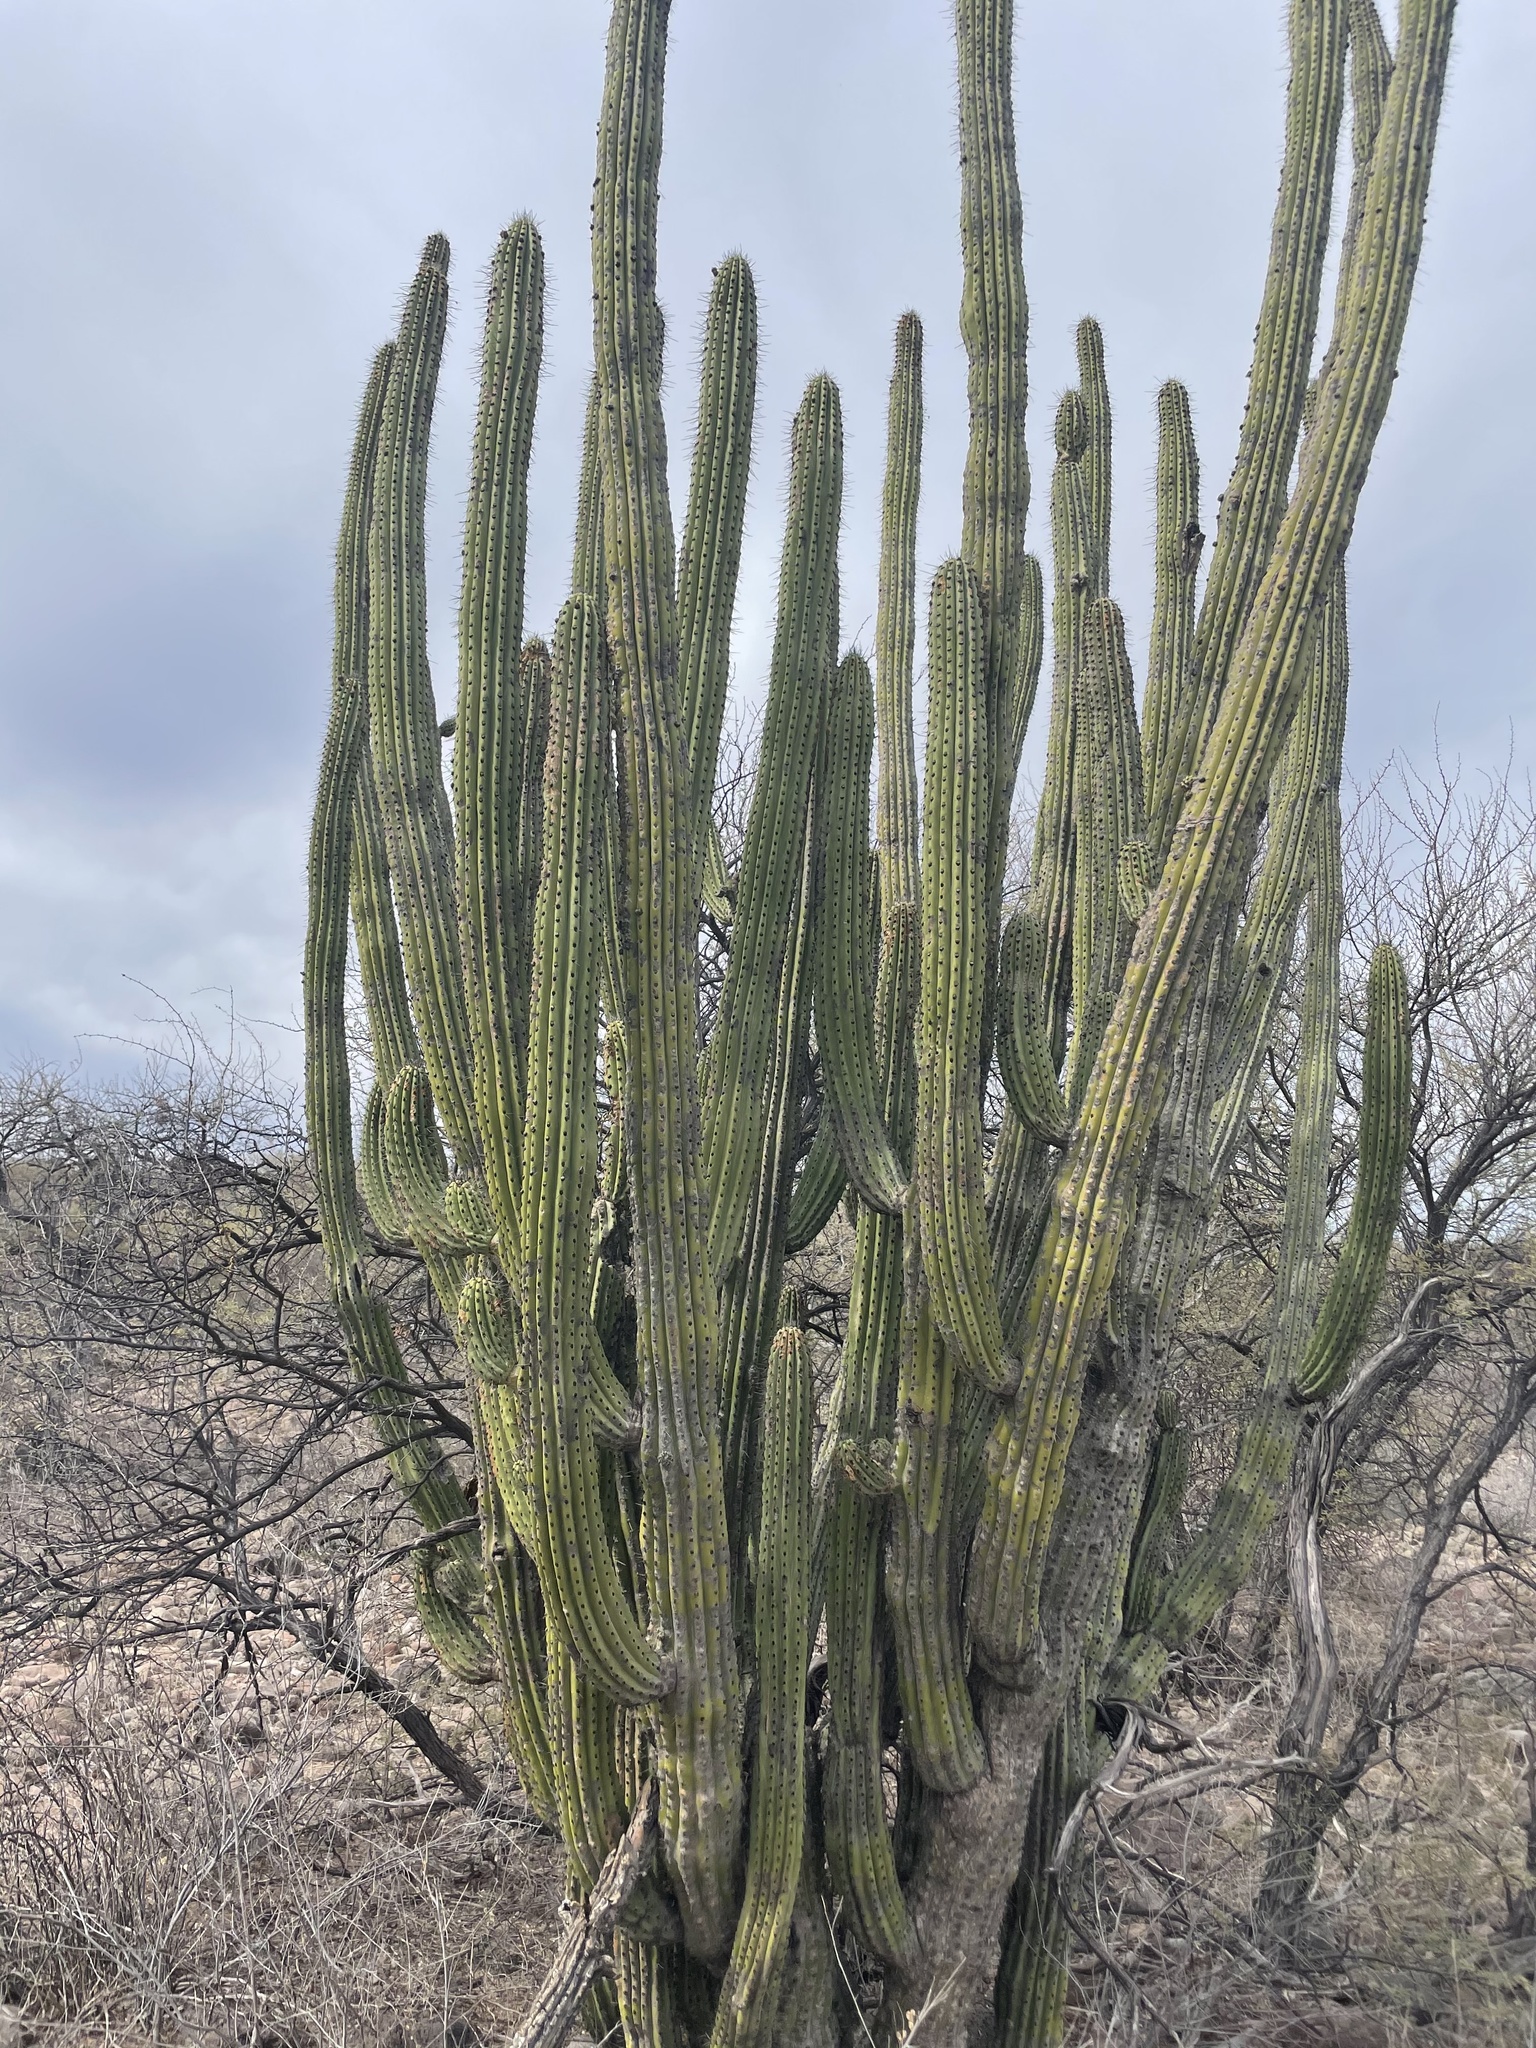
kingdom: Plantae
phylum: Tracheophyta
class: Magnoliopsida
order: Caryophyllales
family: Cactaceae
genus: Stenocereus
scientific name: Stenocereus thurberi
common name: Organ pipe cactus
